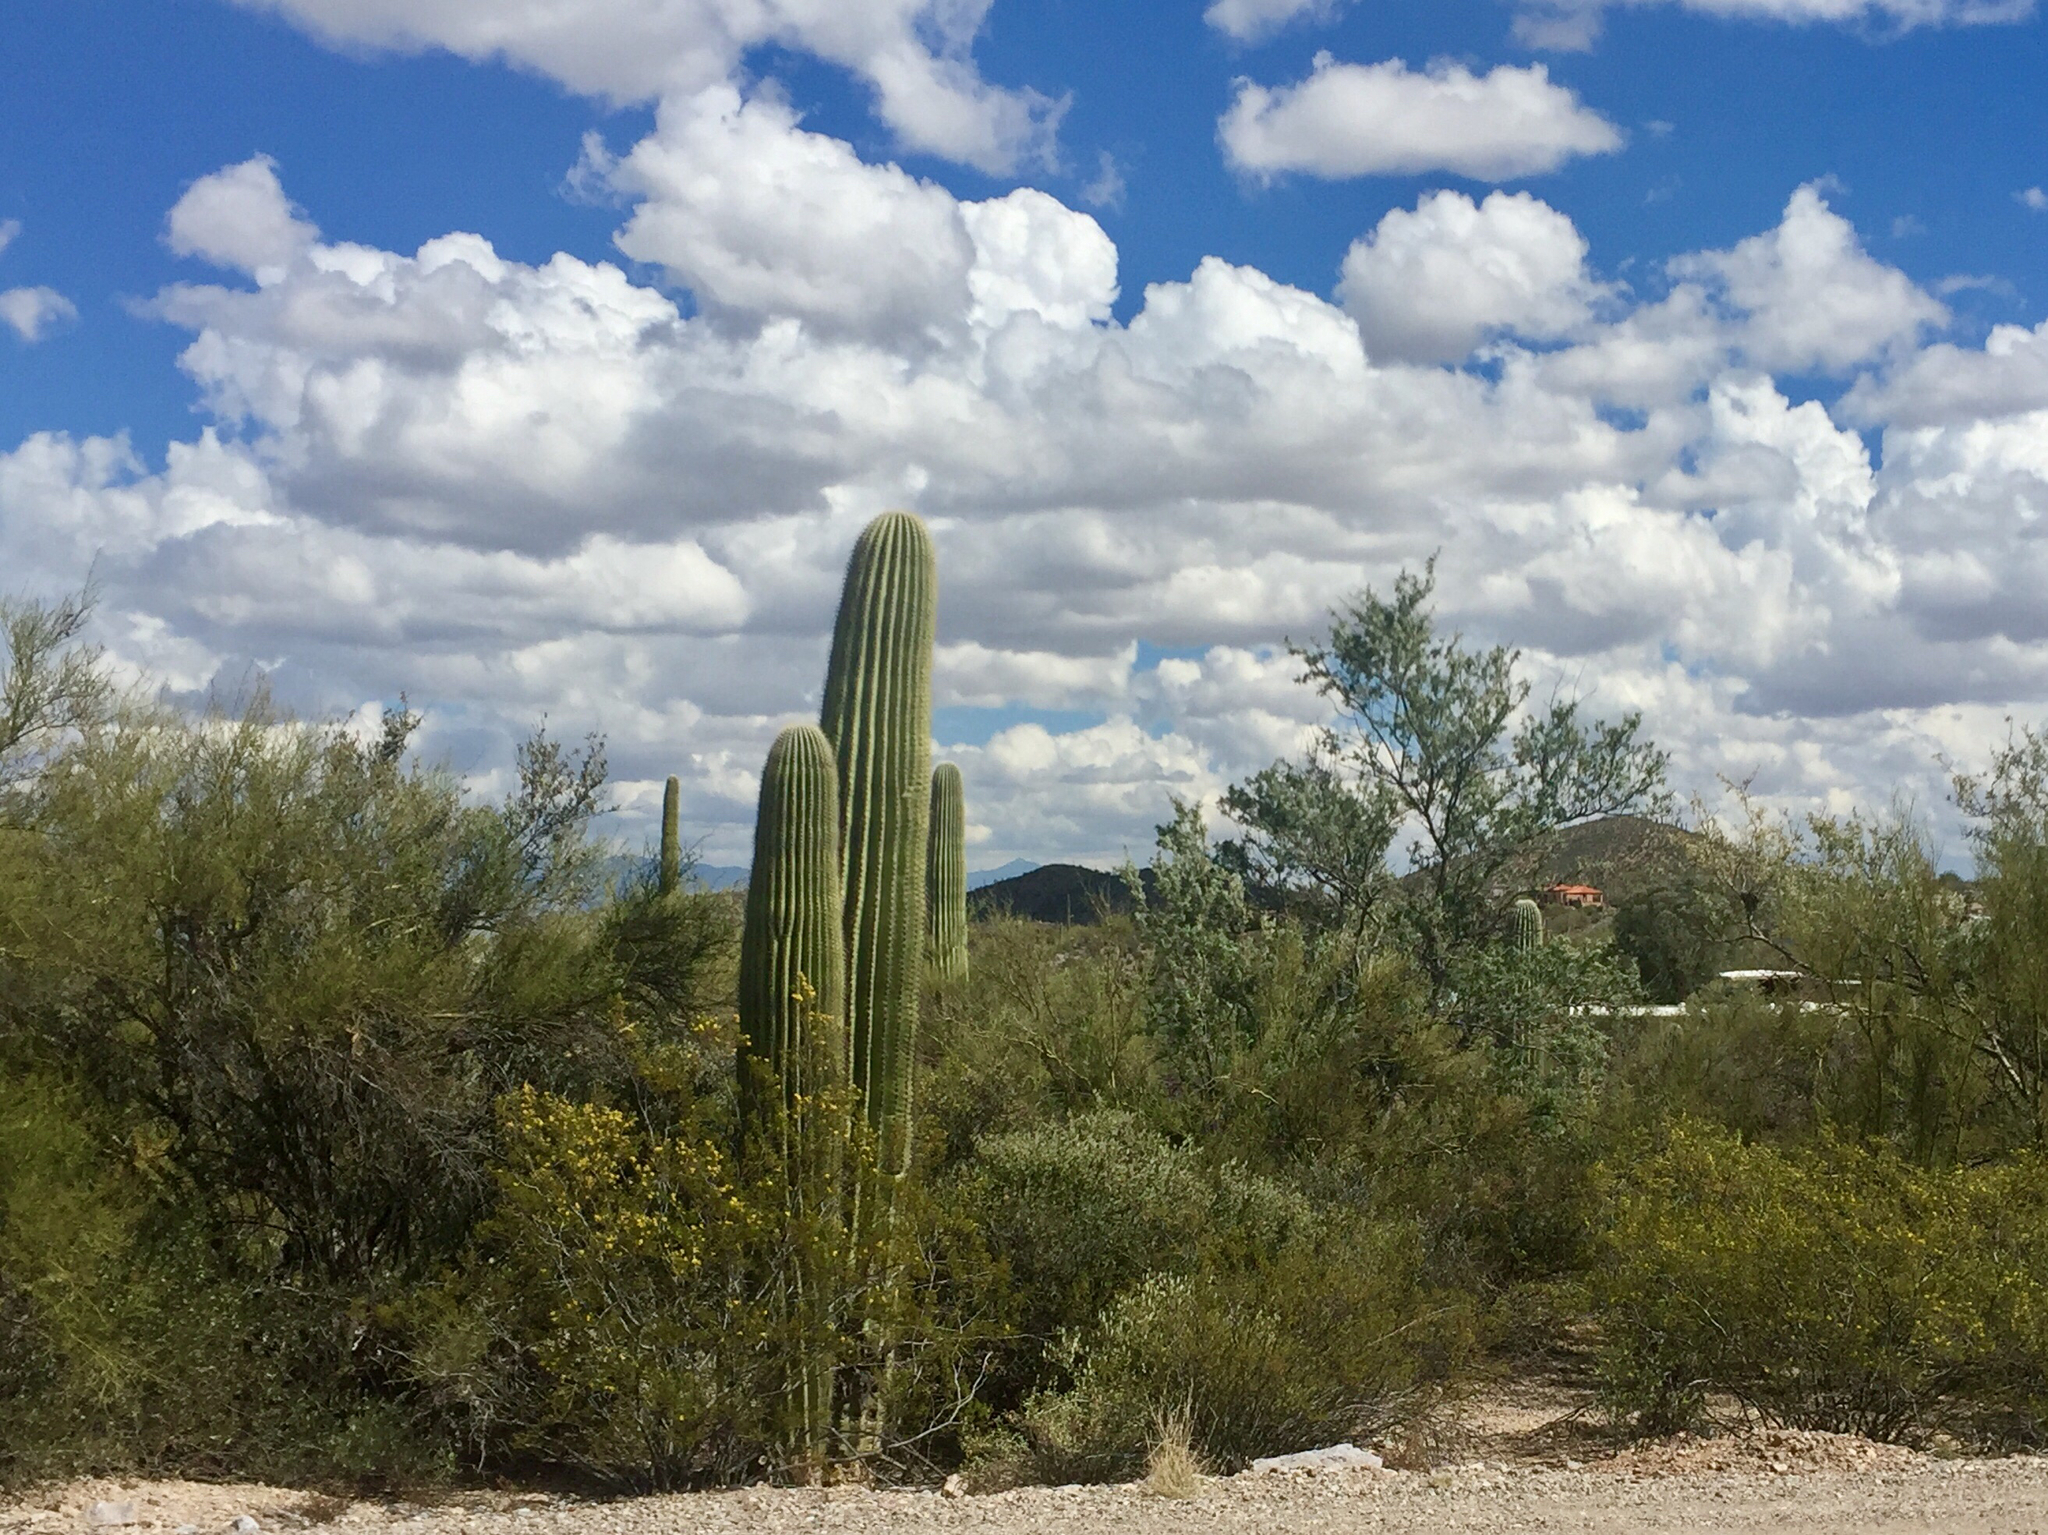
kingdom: Plantae
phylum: Tracheophyta
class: Magnoliopsida
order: Caryophyllales
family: Cactaceae
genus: Carnegiea
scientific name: Carnegiea gigantea
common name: Saguaro
